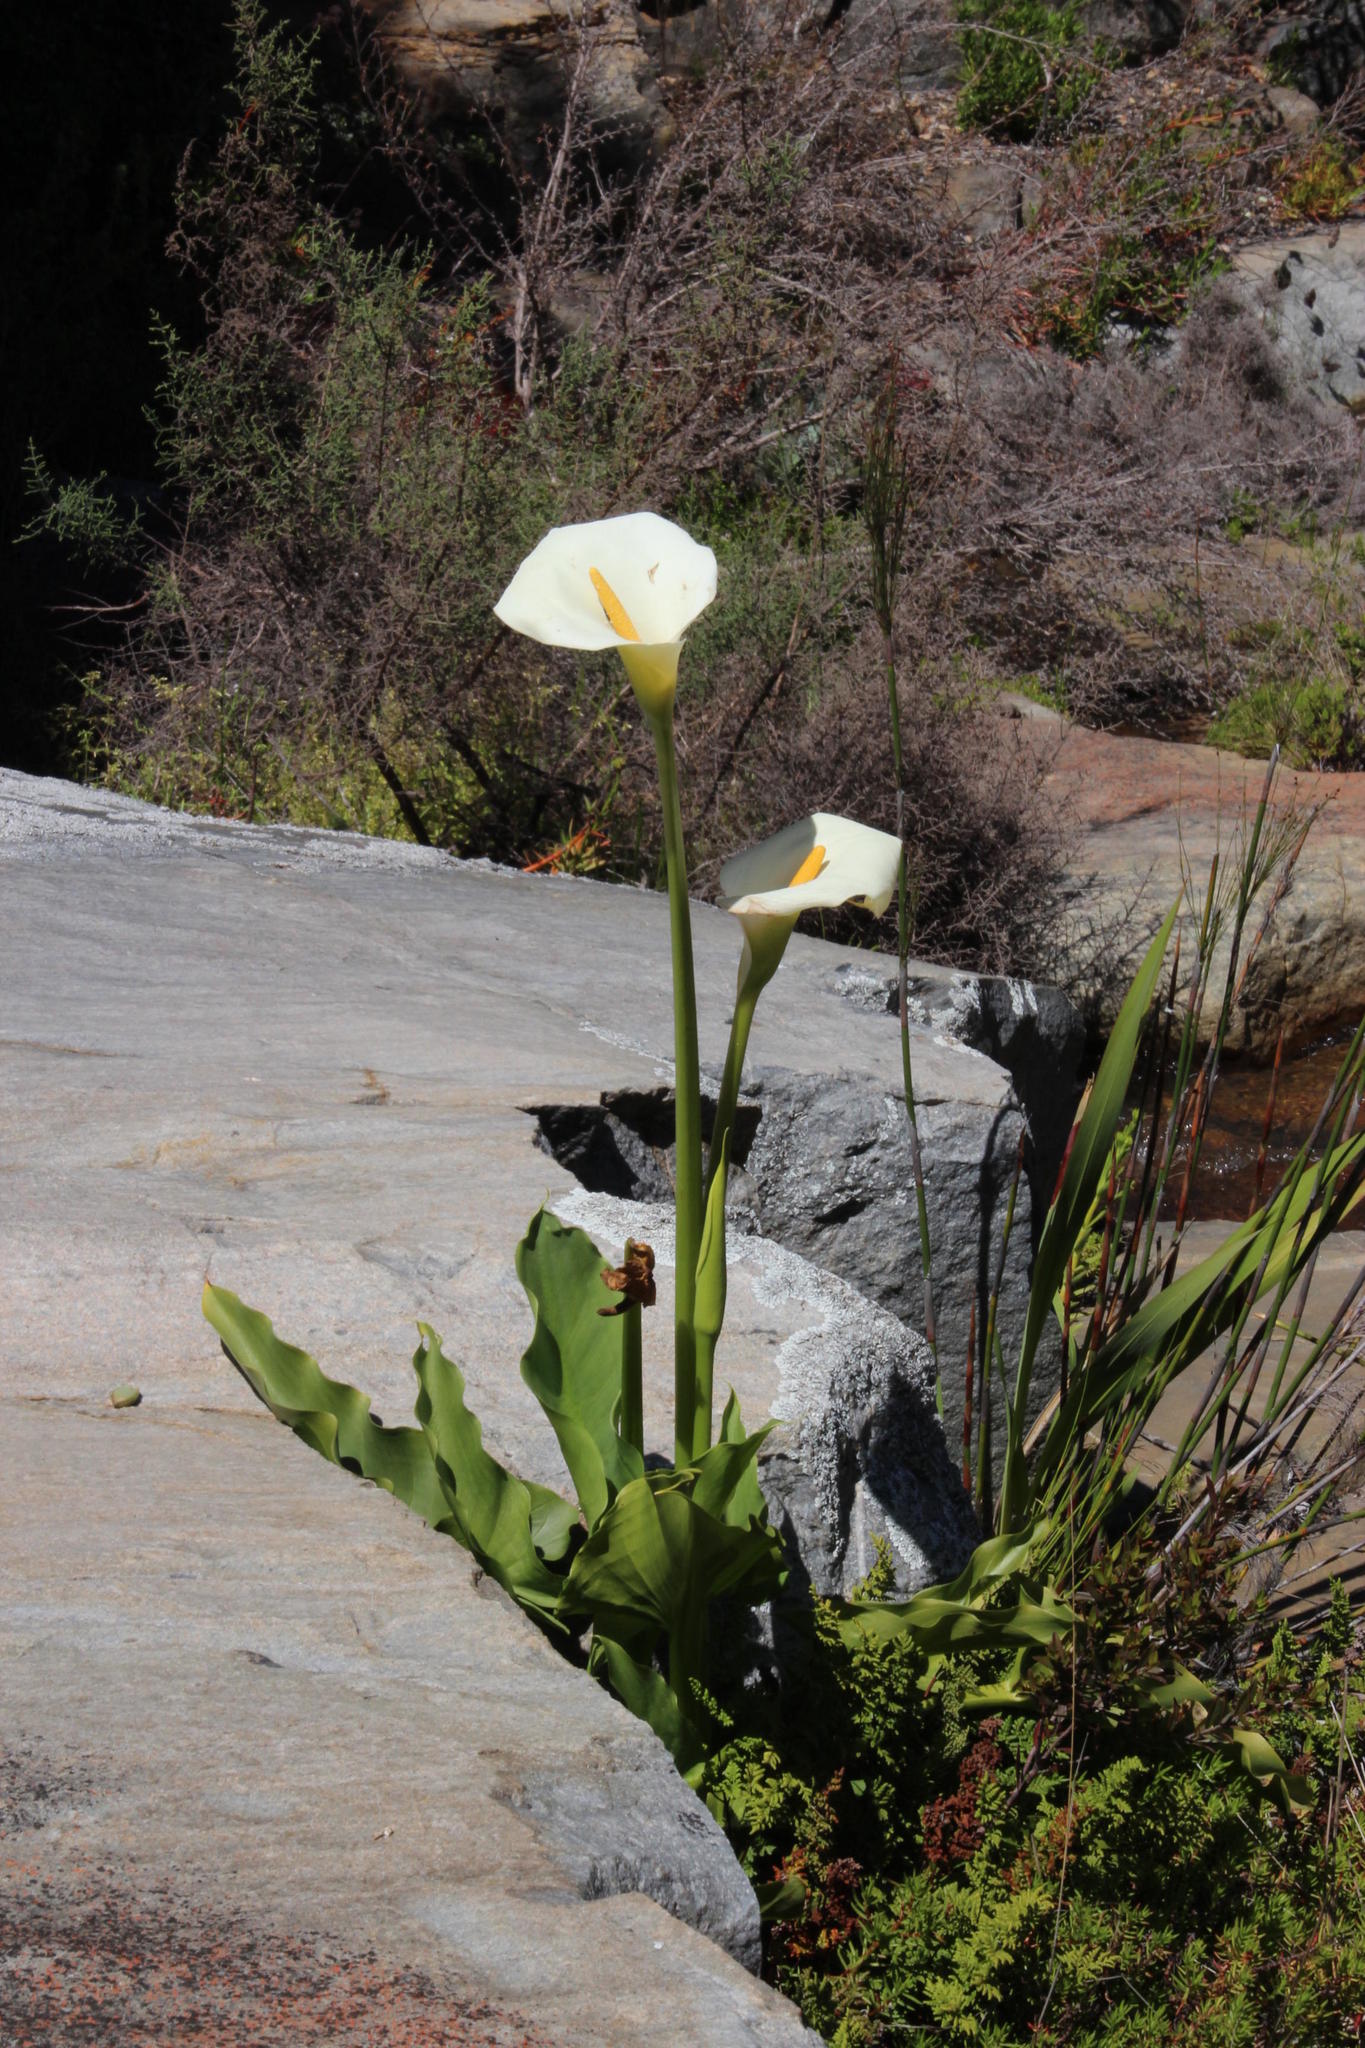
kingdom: Plantae
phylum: Tracheophyta
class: Liliopsida
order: Alismatales
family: Araceae
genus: Zantedeschia
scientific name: Zantedeschia aethiopica
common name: Altar-lily
